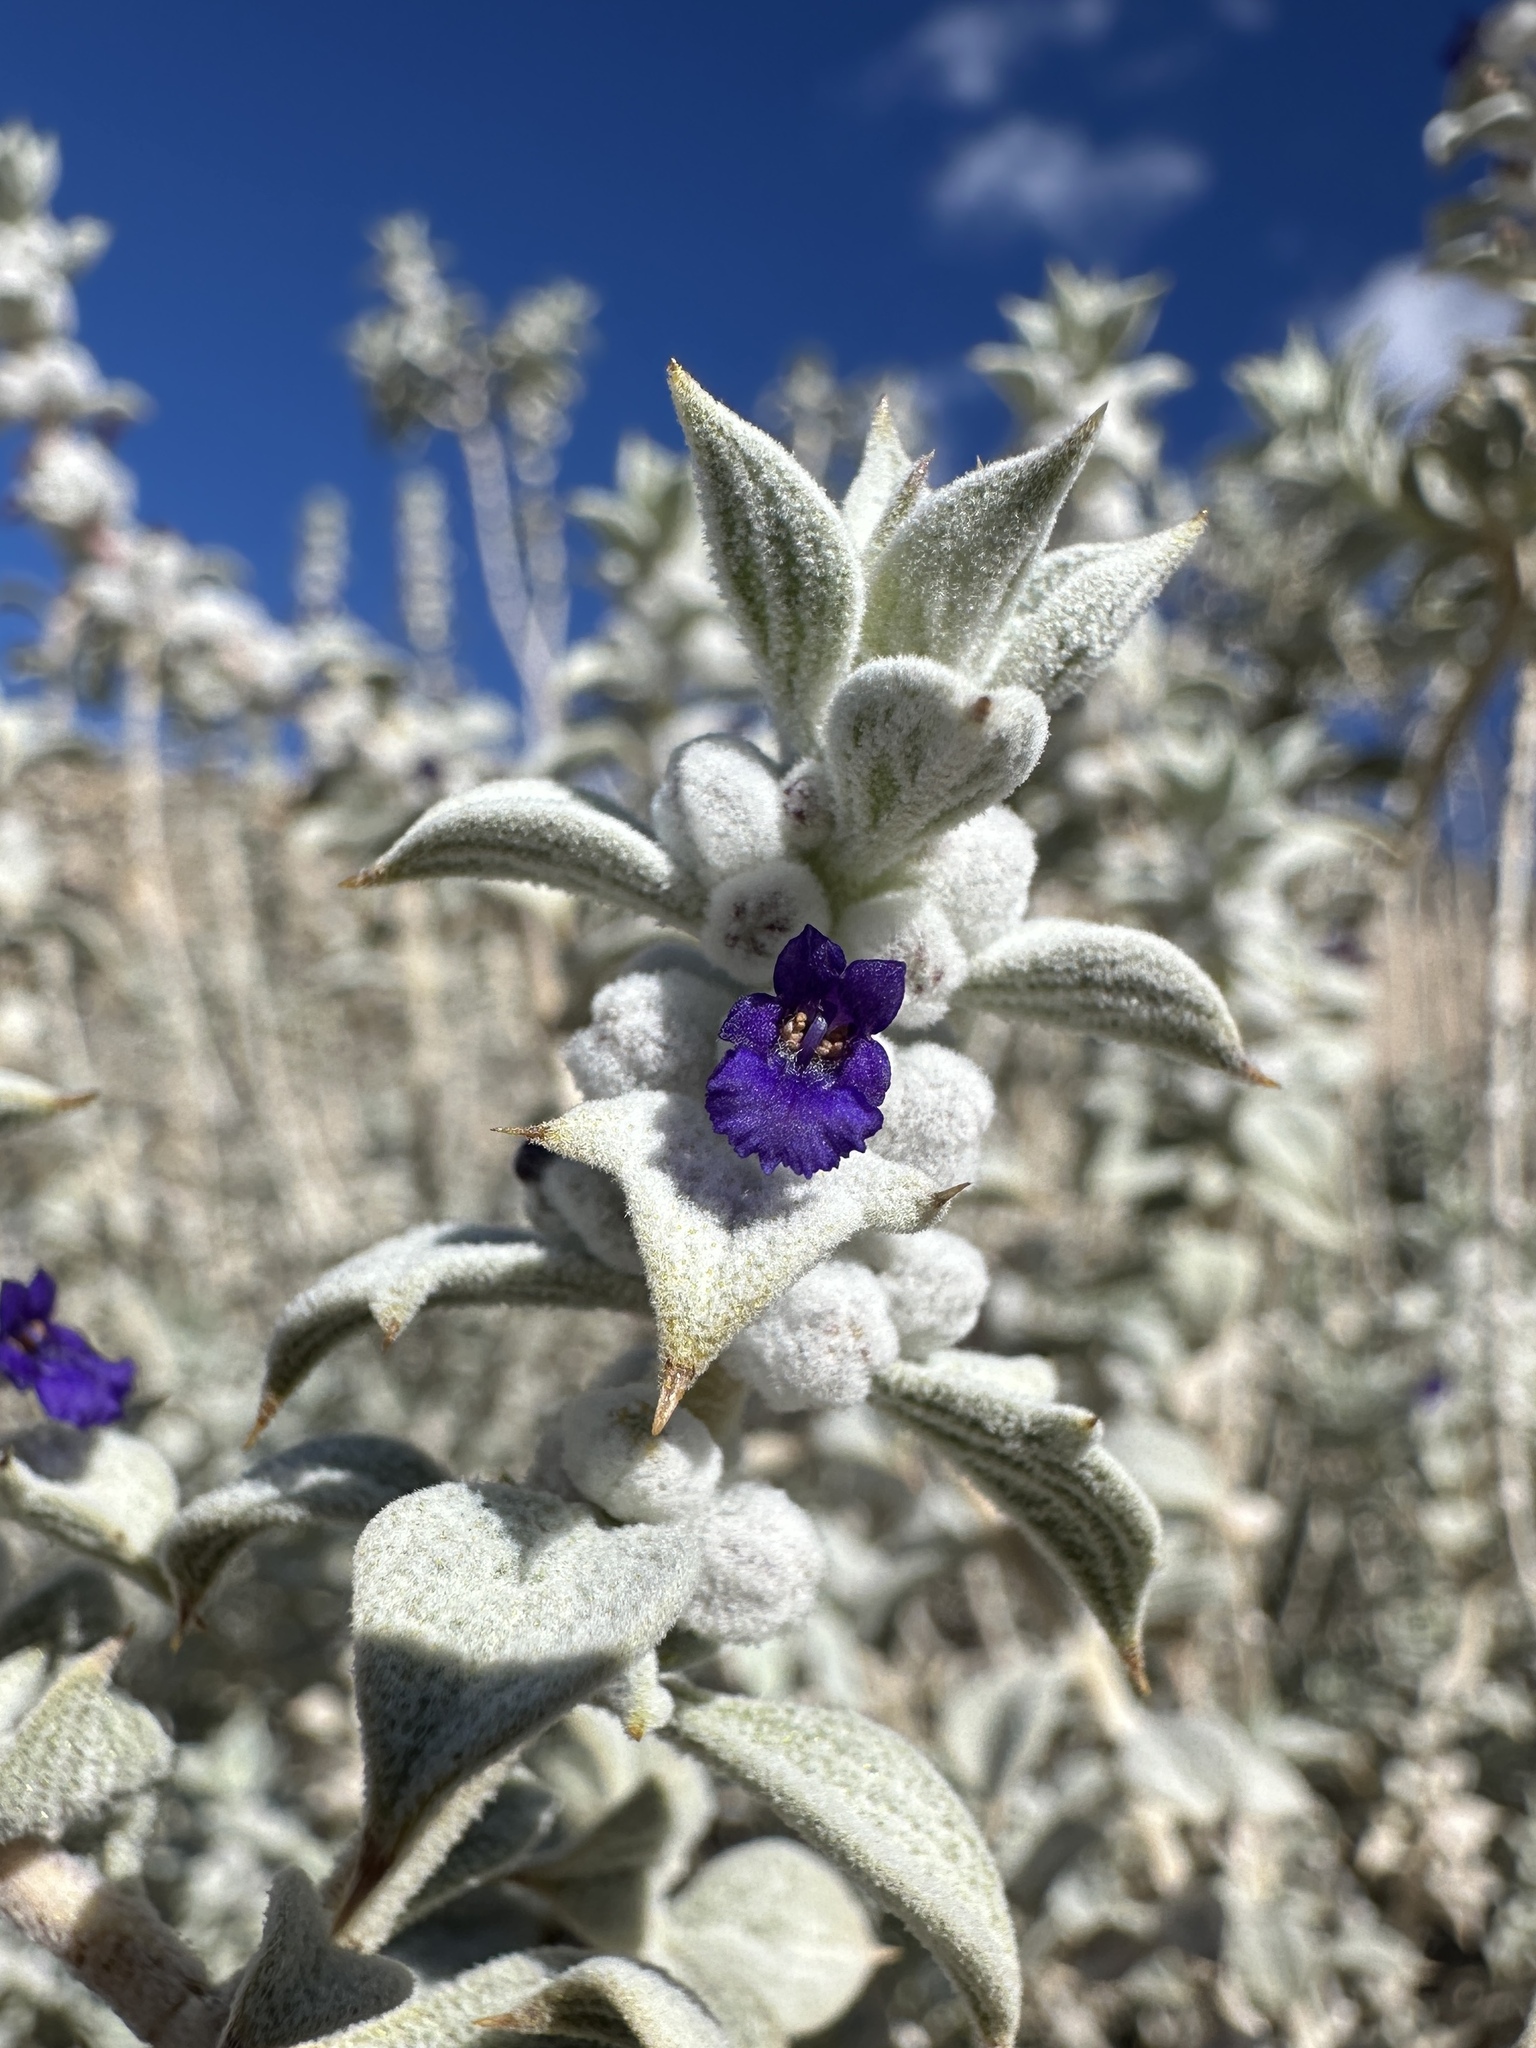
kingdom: Plantae
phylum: Tracheophyta
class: Magnoliopsida
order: Lamiales
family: Lamiaceae
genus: Salvia
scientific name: Salvia funerea
